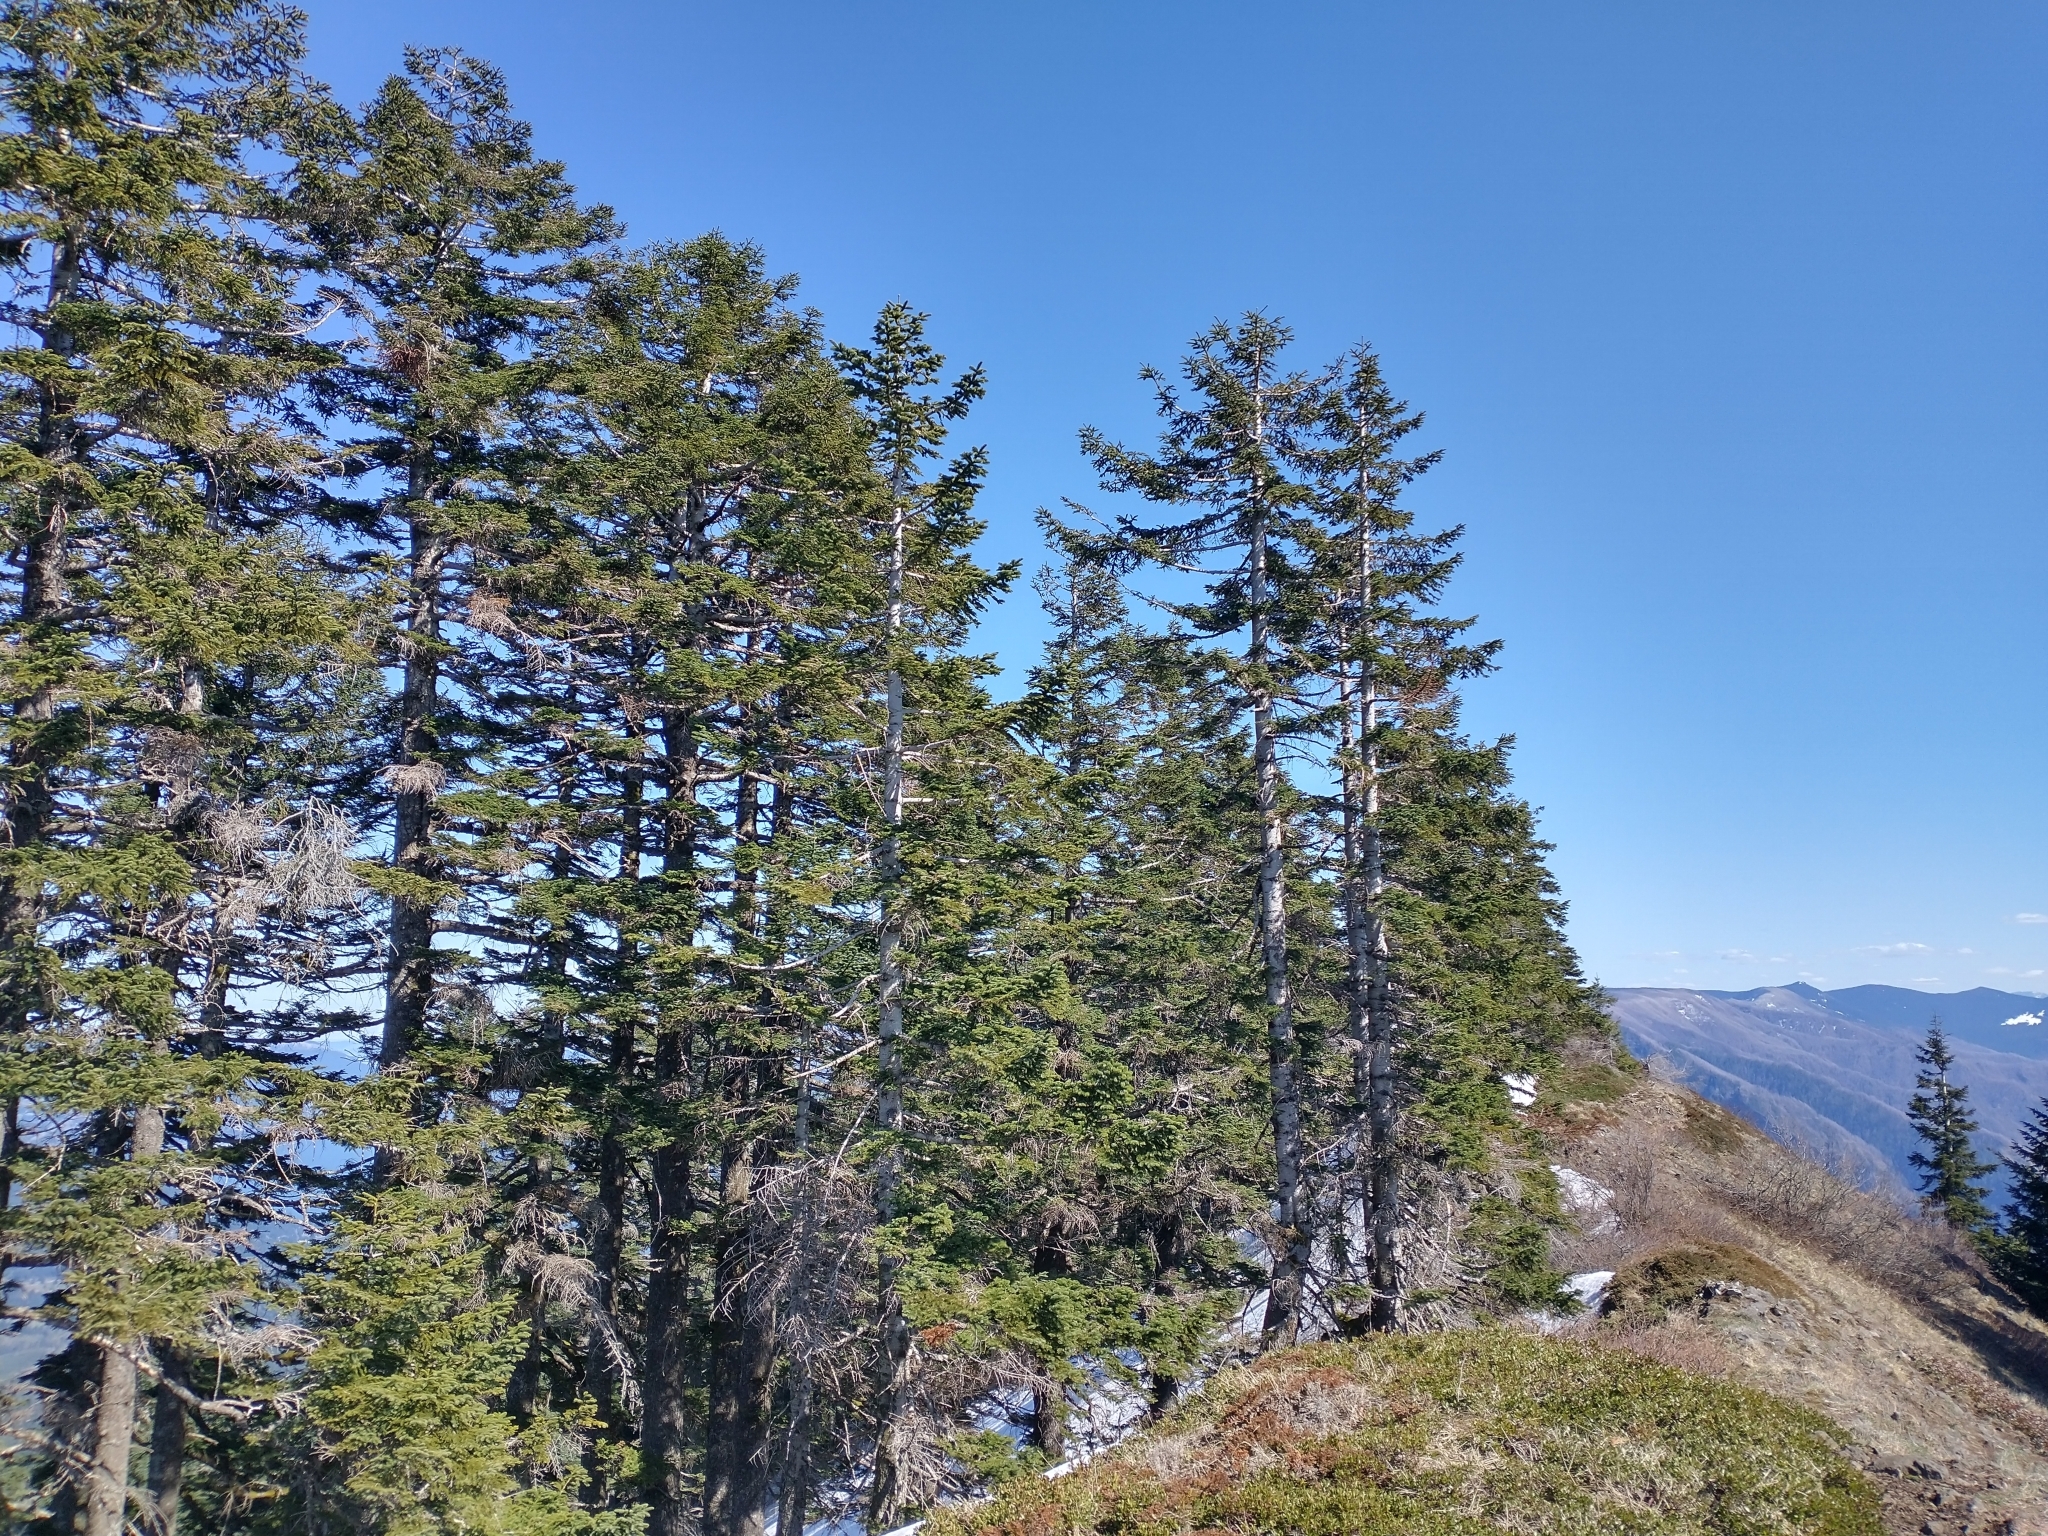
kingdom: Plantae
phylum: Tracheophyta
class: Pinopsida
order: Pinales
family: Pinaceae
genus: Abies
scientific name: Abies procera
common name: Noble fir
